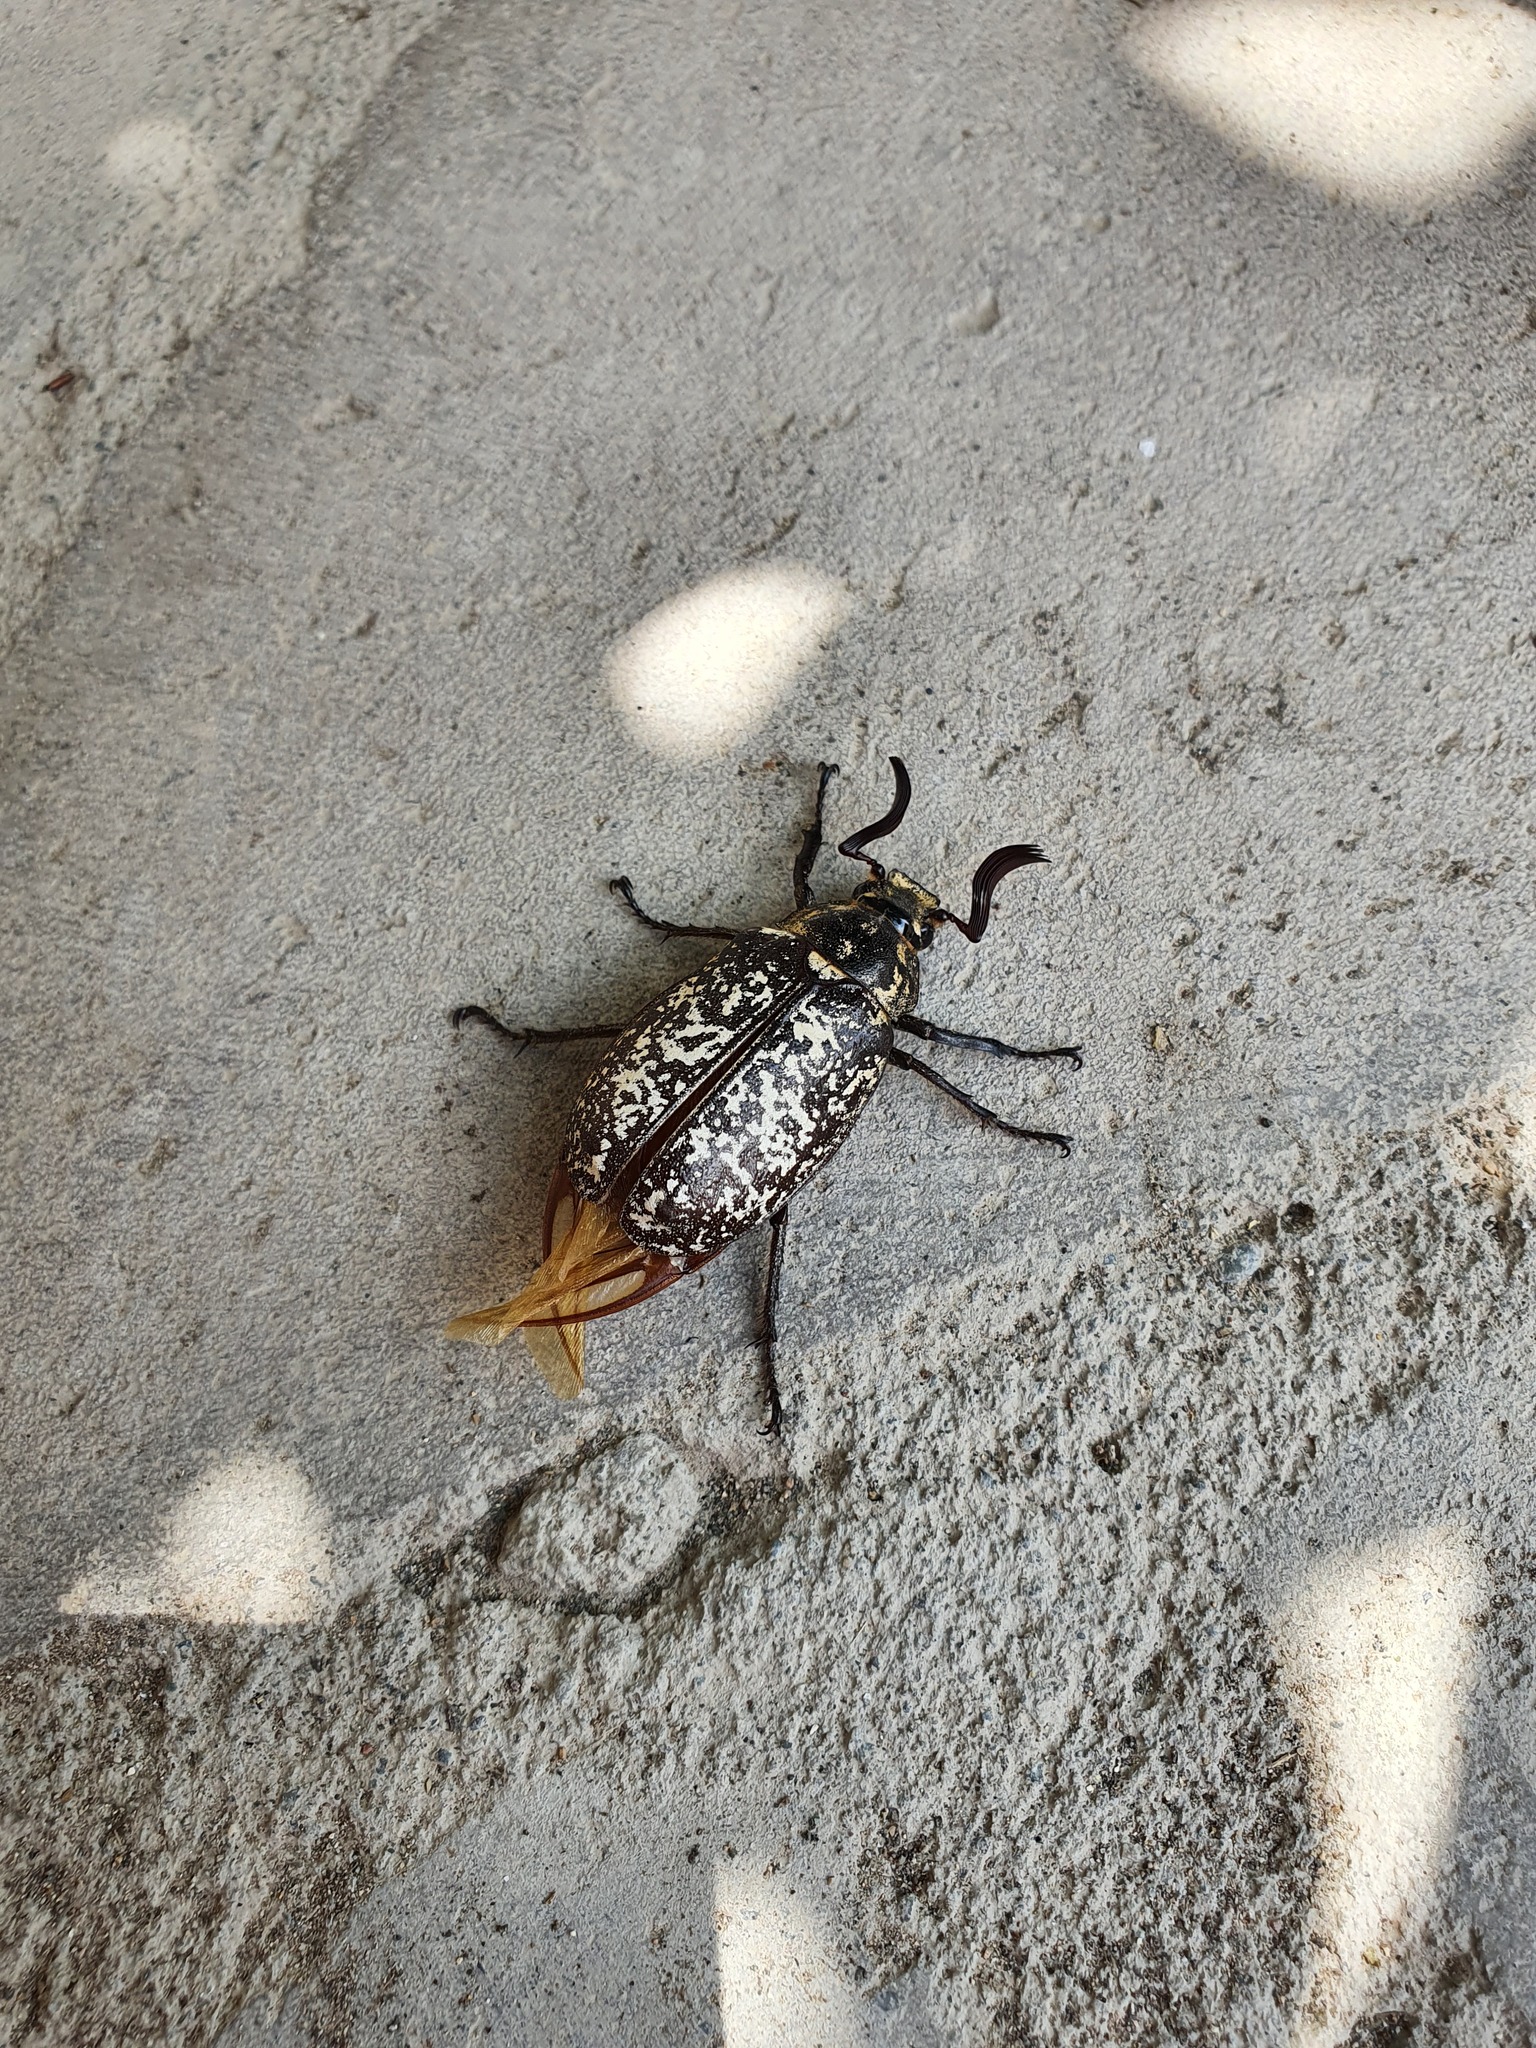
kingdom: Animalia
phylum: Arthropoda
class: Insecta
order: Coleoptera
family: Scarabaeidae
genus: Polyphylla
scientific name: Polyphylla fullo
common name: Pine chafer
